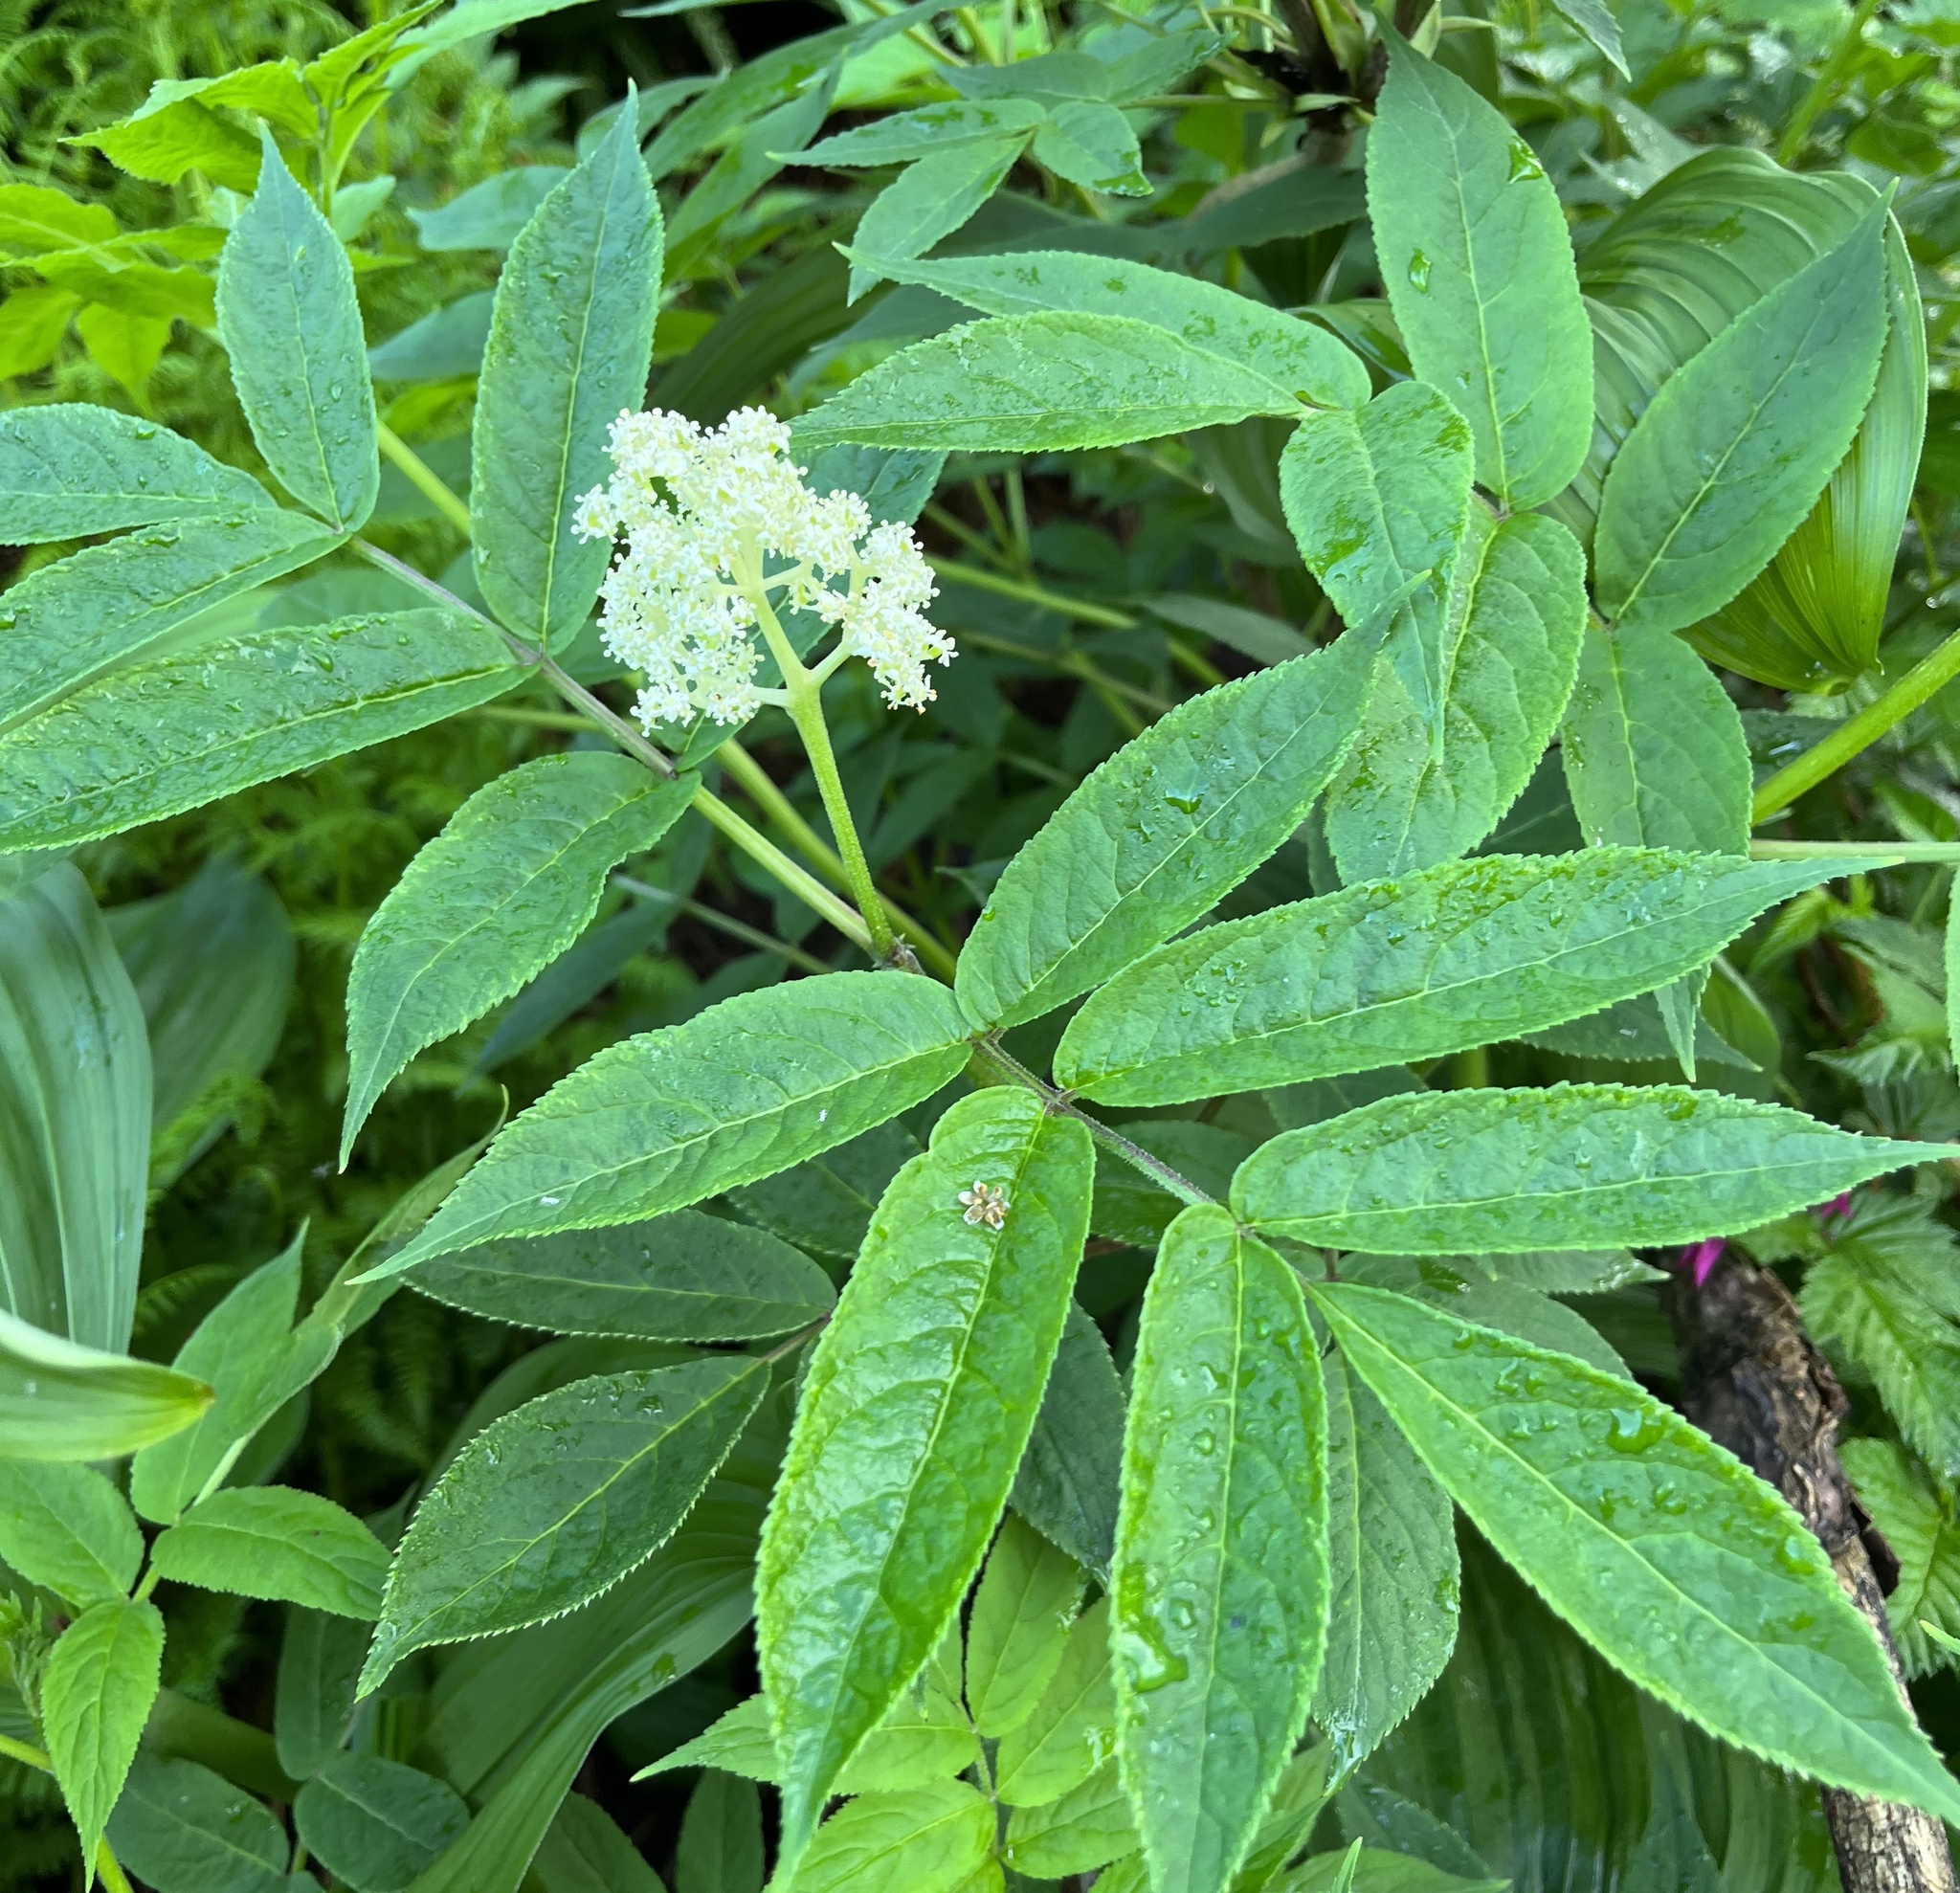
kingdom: Plantae
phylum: Tracheophyta
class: Magnoliopsida
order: Dipsacales
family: Viburnaceae
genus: Sambucus
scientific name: Sambucus racemosa
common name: Red-berried elder
